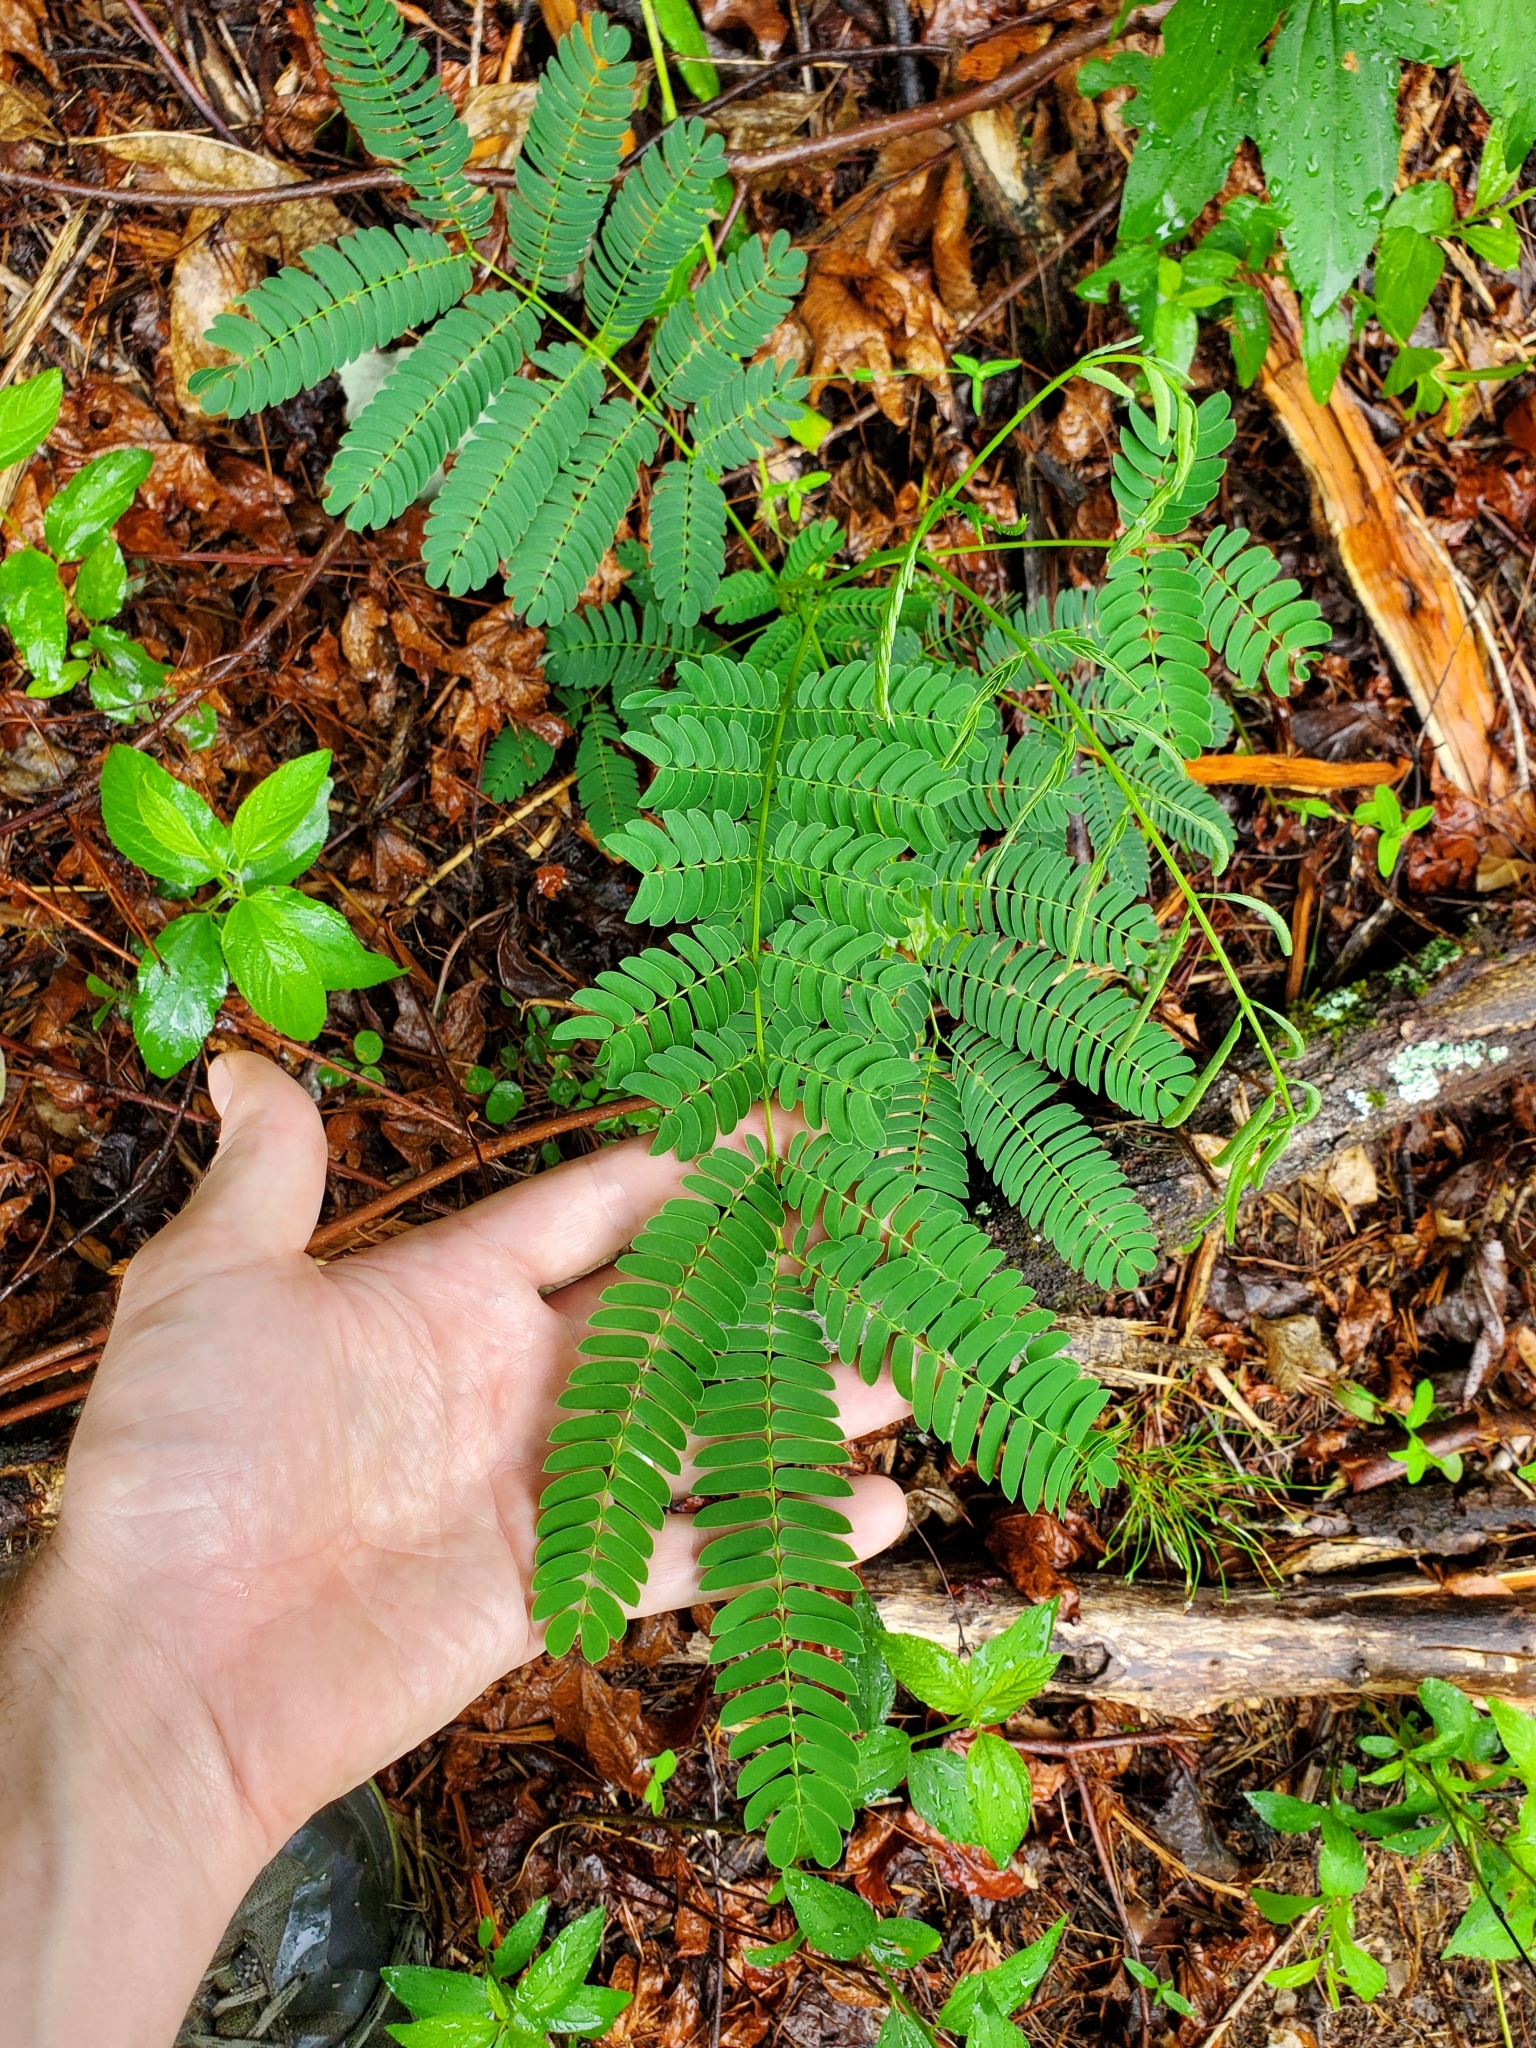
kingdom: Plantae
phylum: Tracheophyta
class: Magnoliopsida
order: Fabales
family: Fabaceae
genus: Albizia
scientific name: Albizia julibrissin
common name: Silktree
